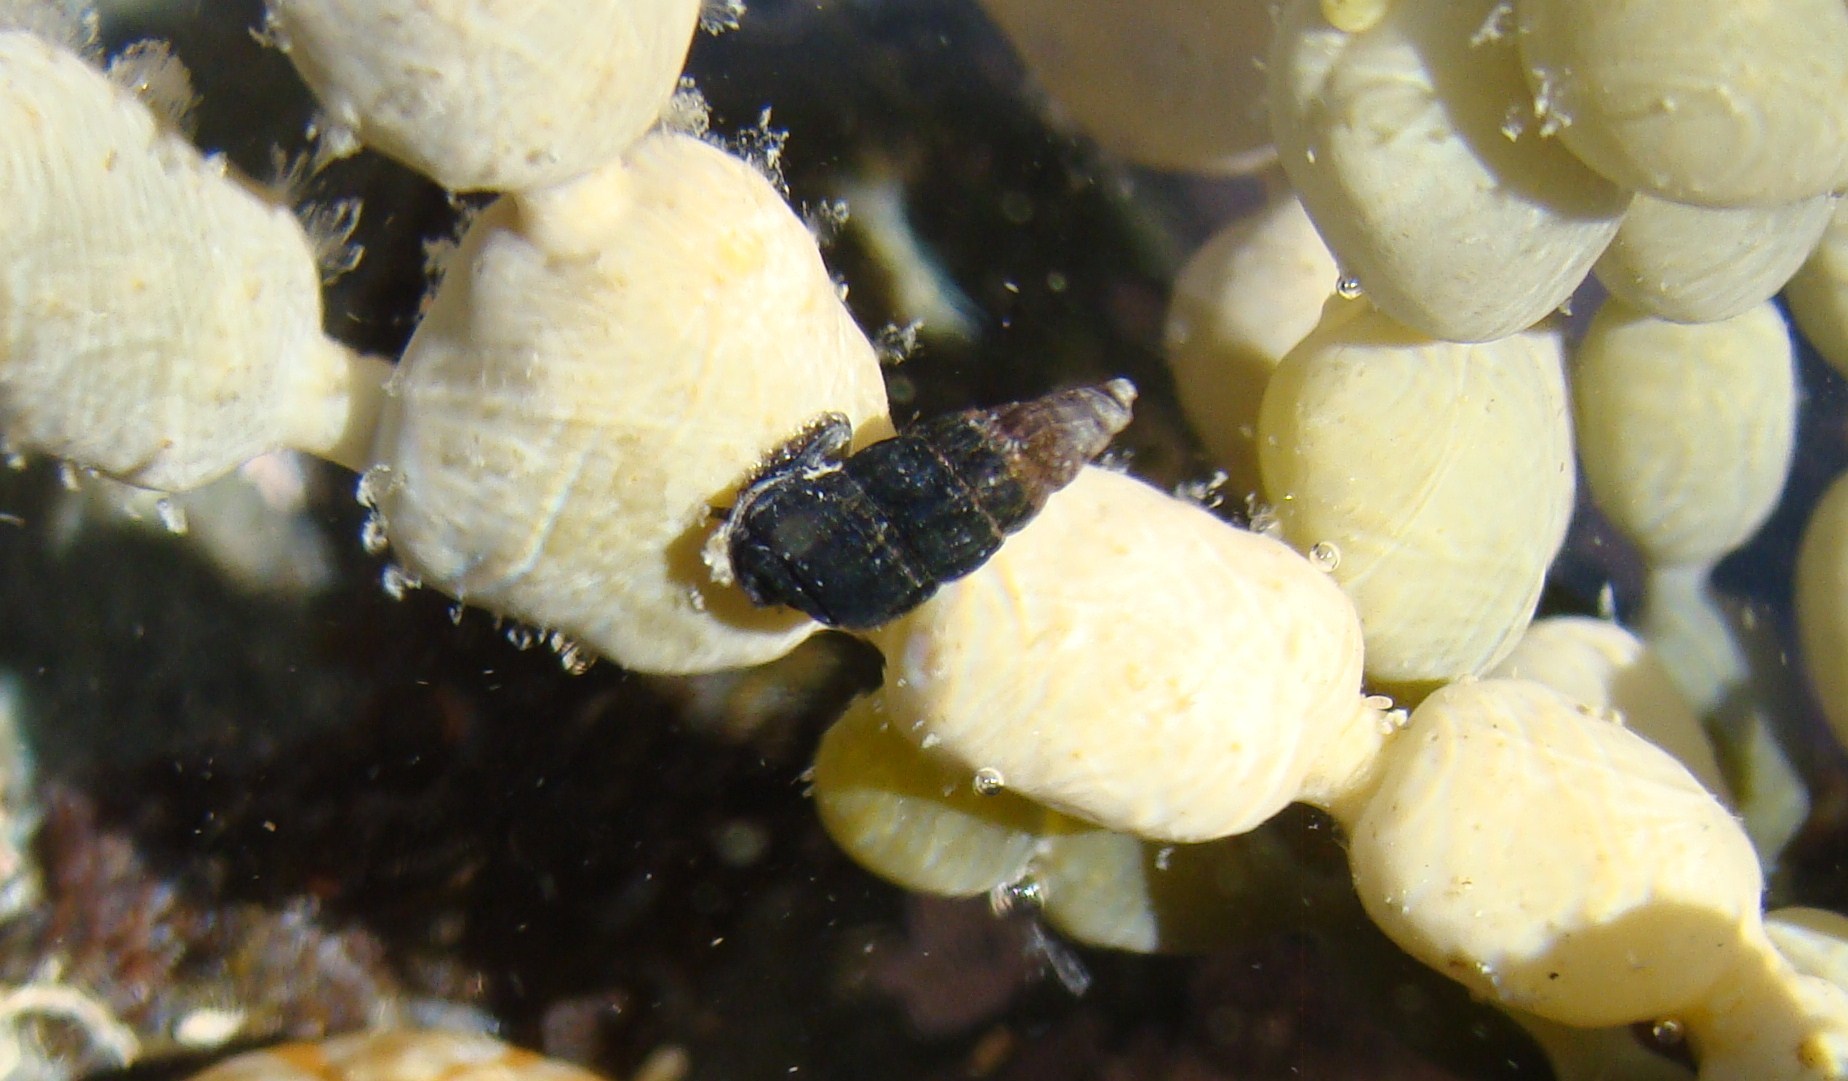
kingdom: Animalia
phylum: Mollusca
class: Gastropoda
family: Batillariidae
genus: Zeacumantus
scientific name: Zeacumantus subcarinatus
